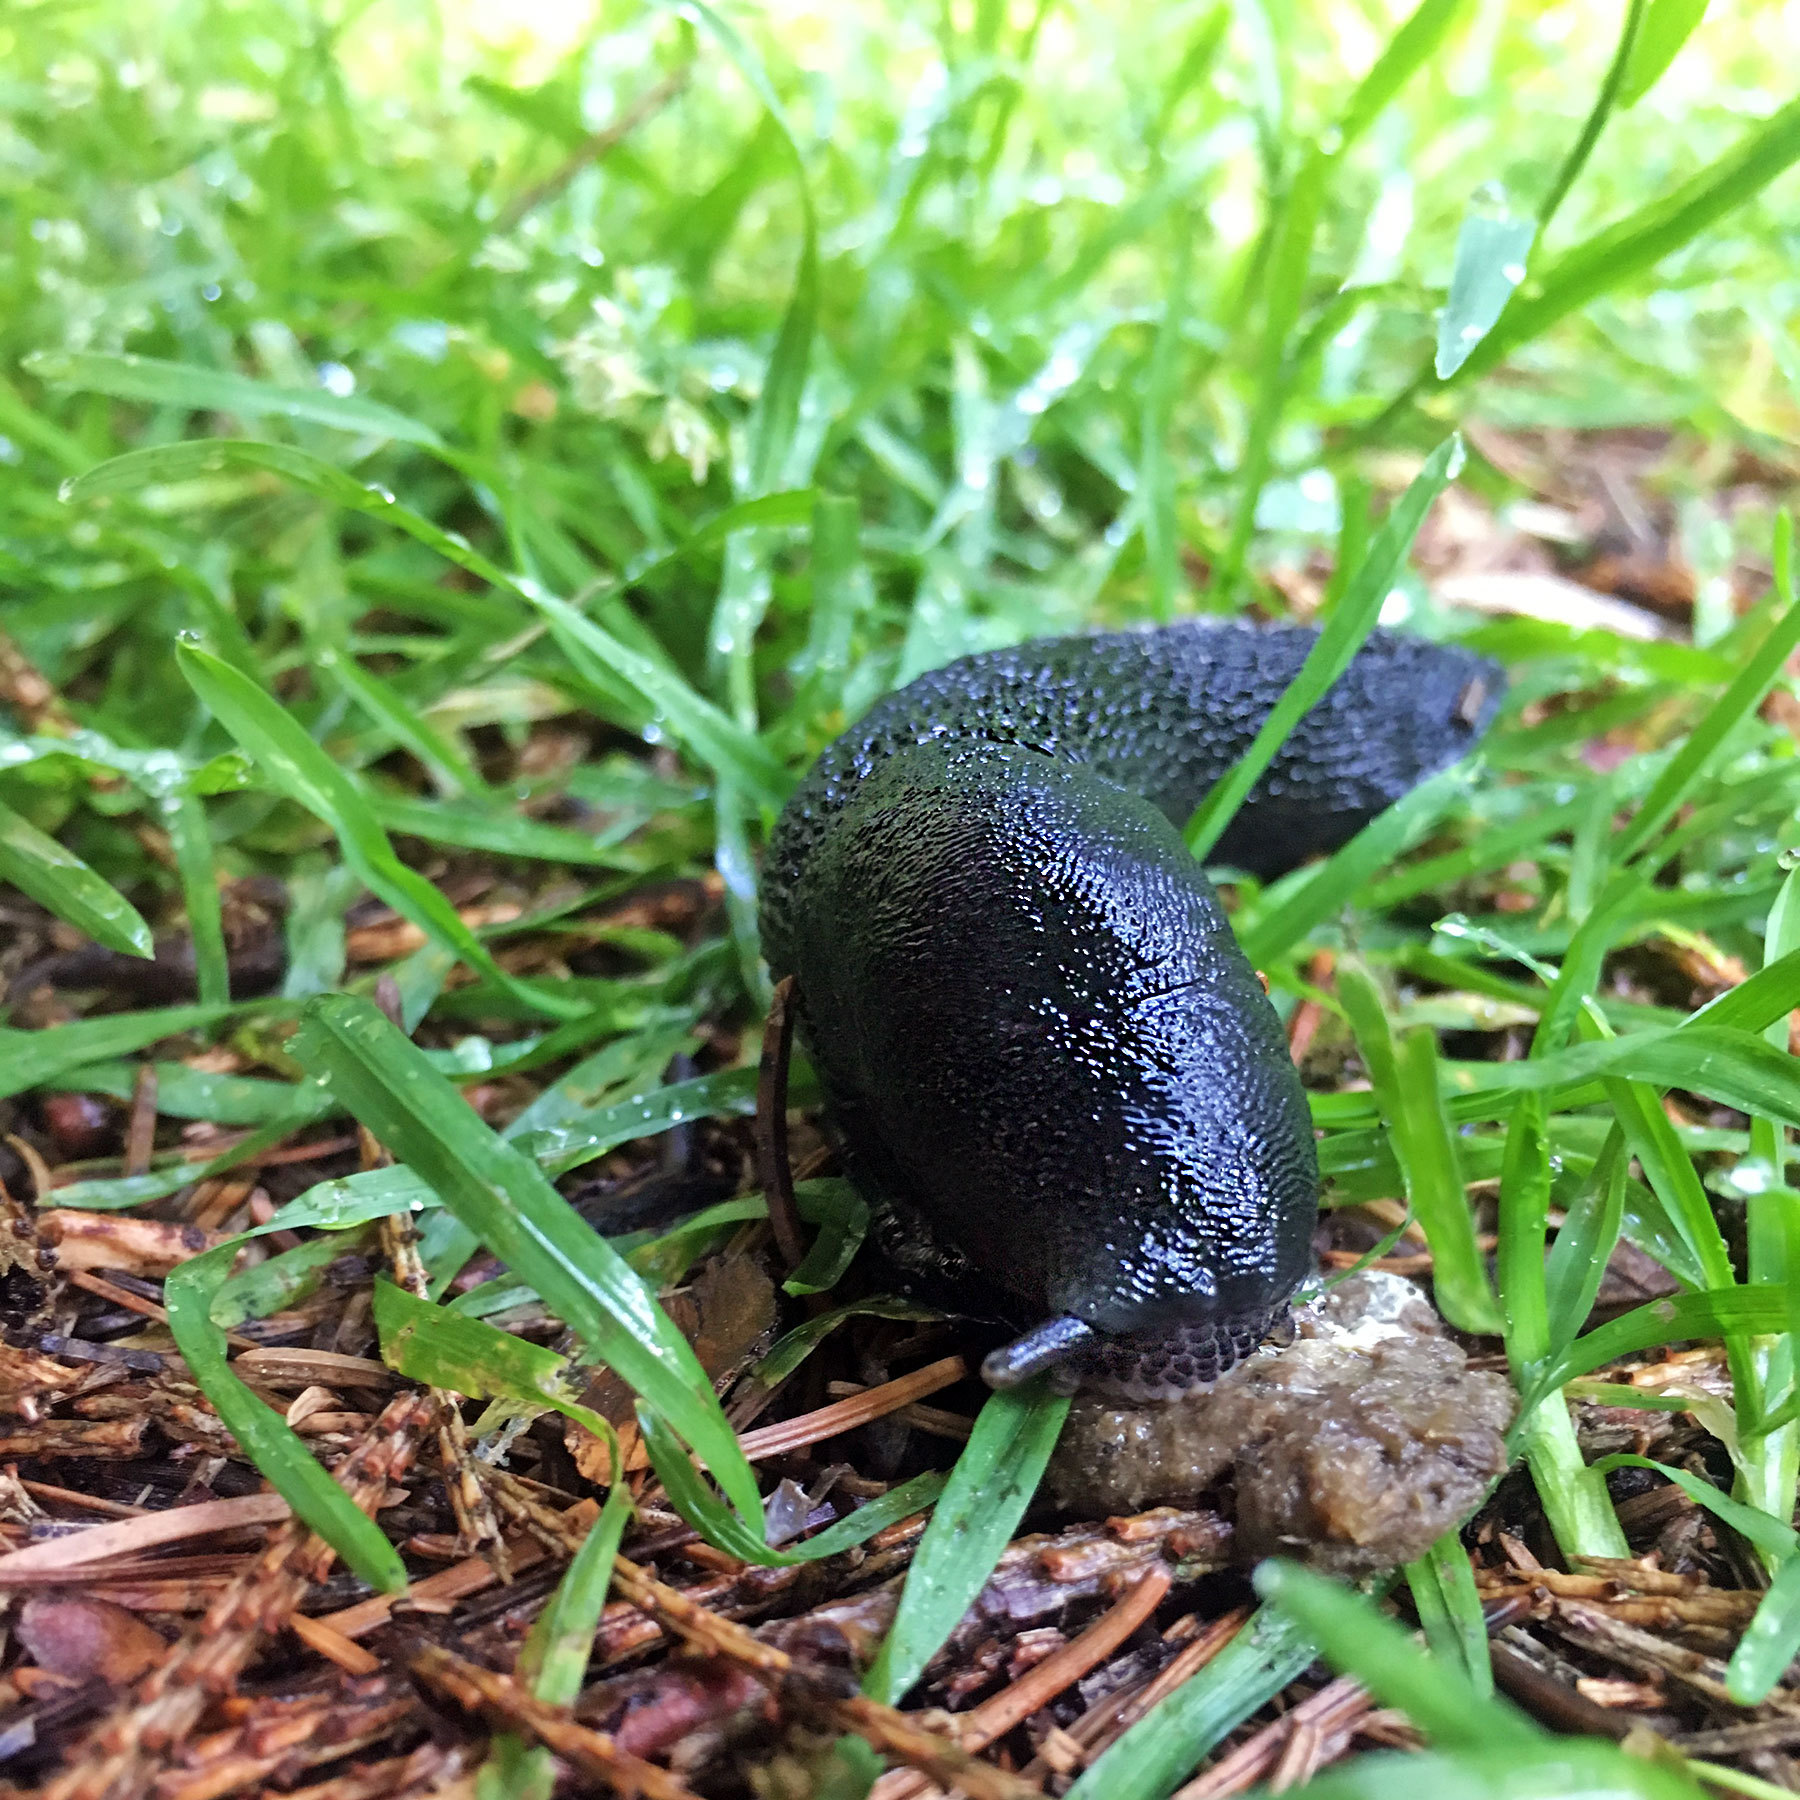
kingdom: Animalia
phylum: Mollusca
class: Gastropoda
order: Stylommatophora
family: Limacidae
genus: Limax
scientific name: Limax cinereoniger
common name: Ash-black slug
